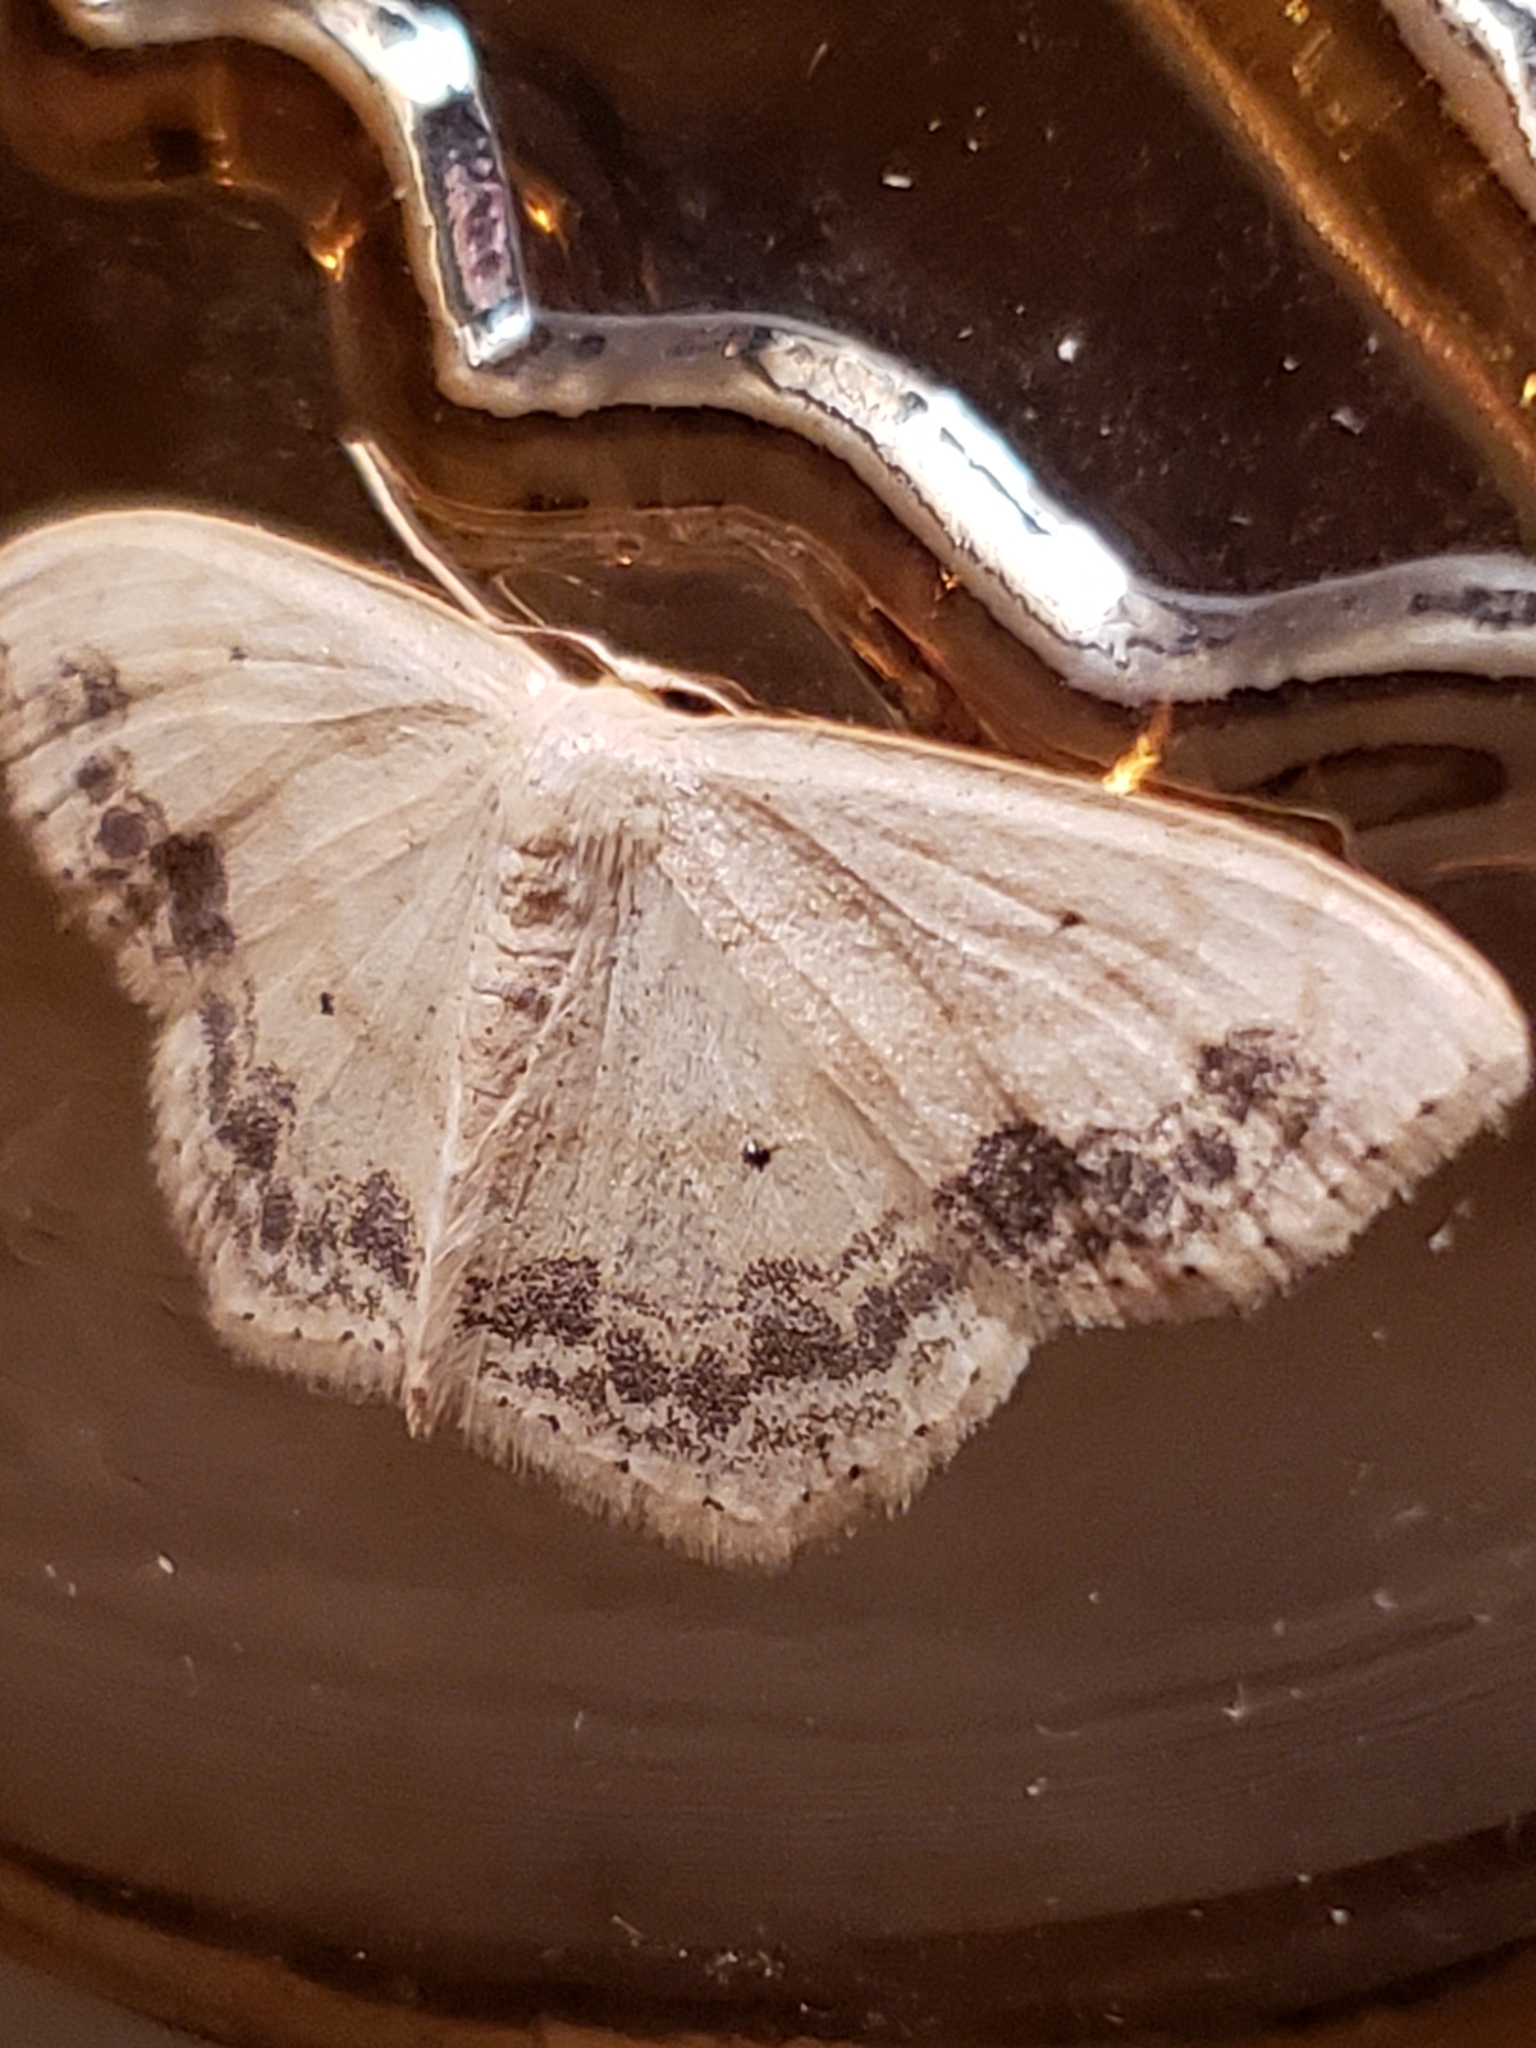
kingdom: Animalia
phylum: Arthropoda
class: Insecta
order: Lepidoptera
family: Geometridae
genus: Scopula
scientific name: Scopula limboundata
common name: Large lace border
